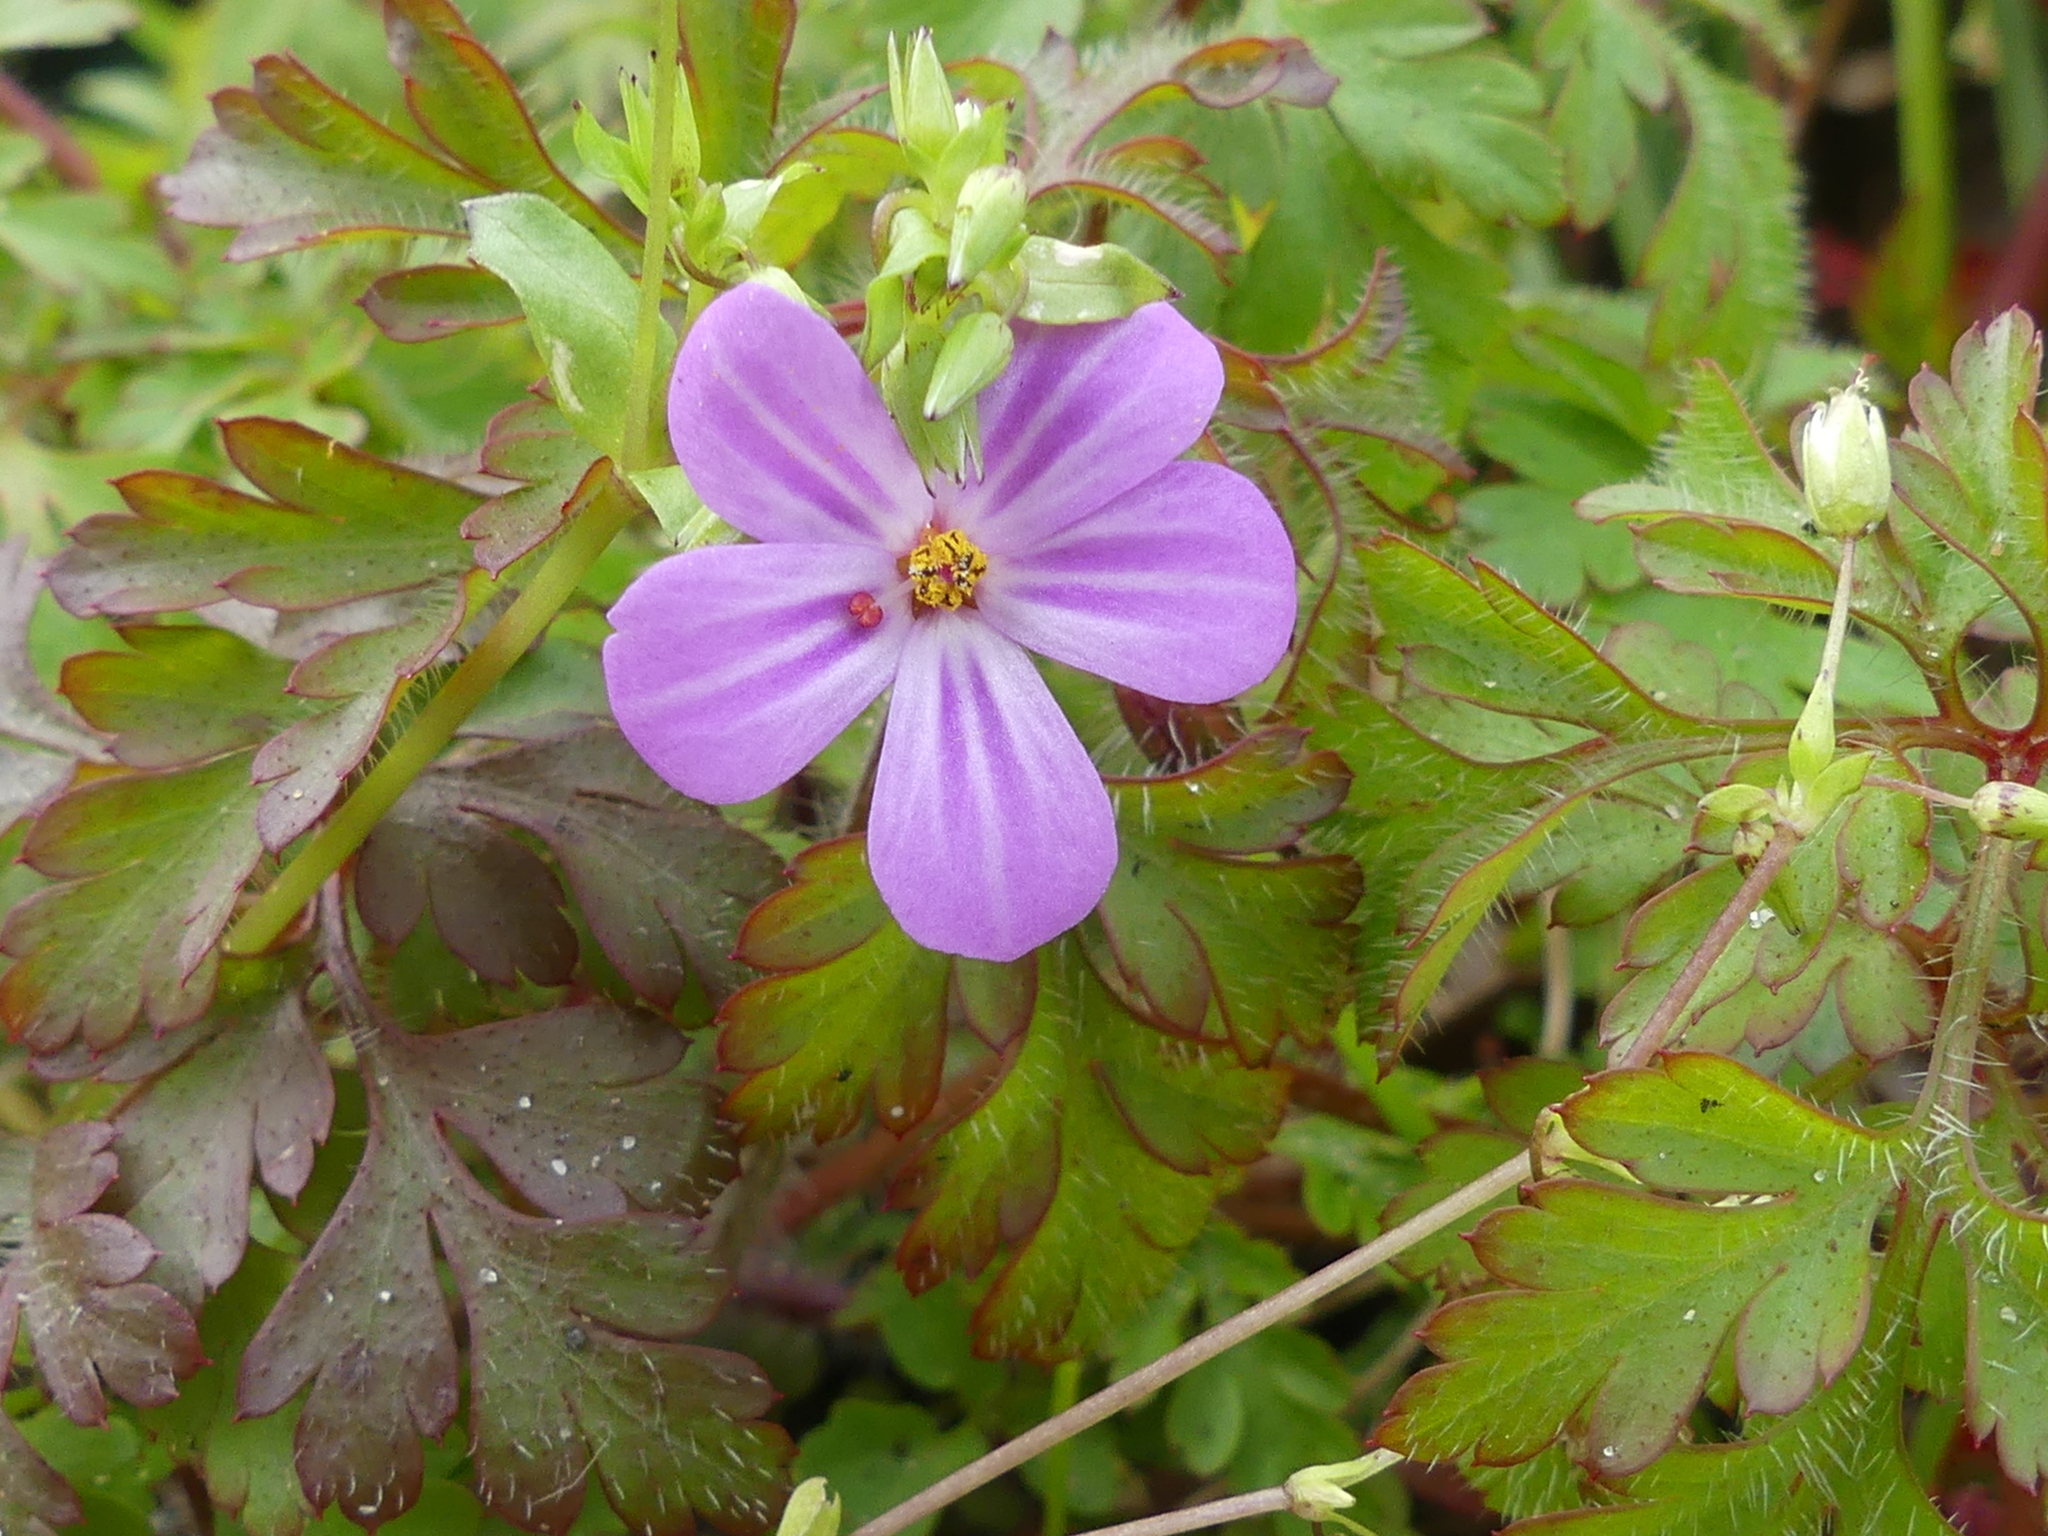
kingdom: Plantae
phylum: Tracheophyta
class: Magnoliopsida
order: Geraniales
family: Geraniaceae
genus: Geranium
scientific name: Geranium robertianum
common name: Herb-robert
